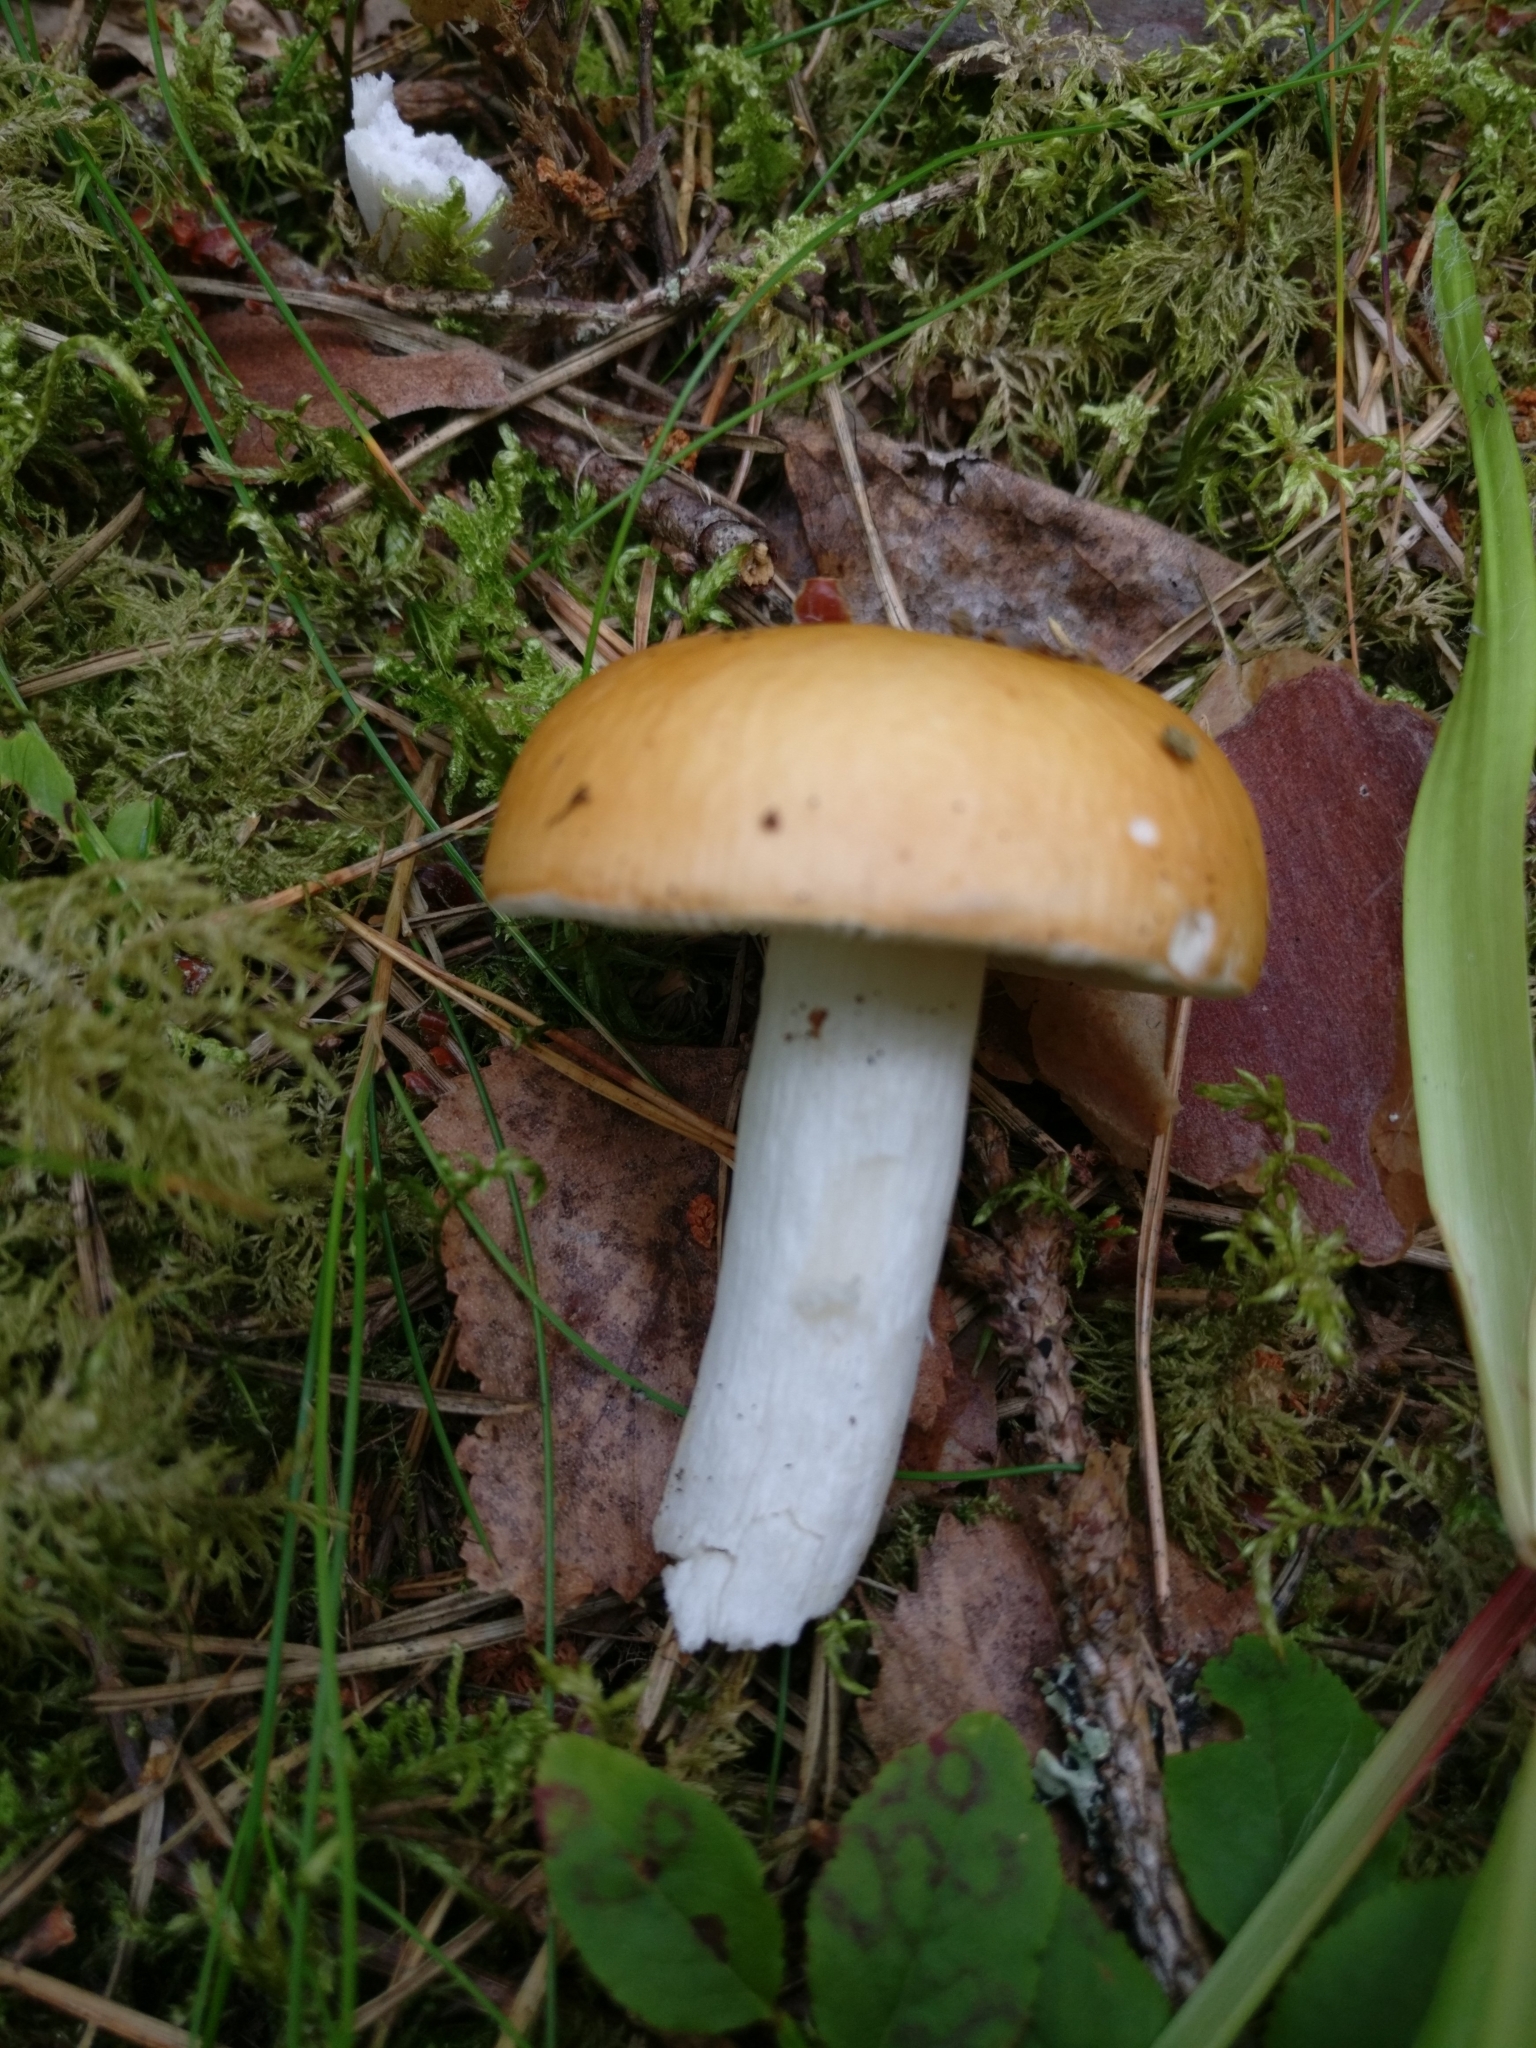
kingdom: Fungi
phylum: Basidiomycota
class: Agaricomycetes
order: Russulales
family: Russulaceae
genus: Russula
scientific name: Russula decolorans
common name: Copper brittlegill
